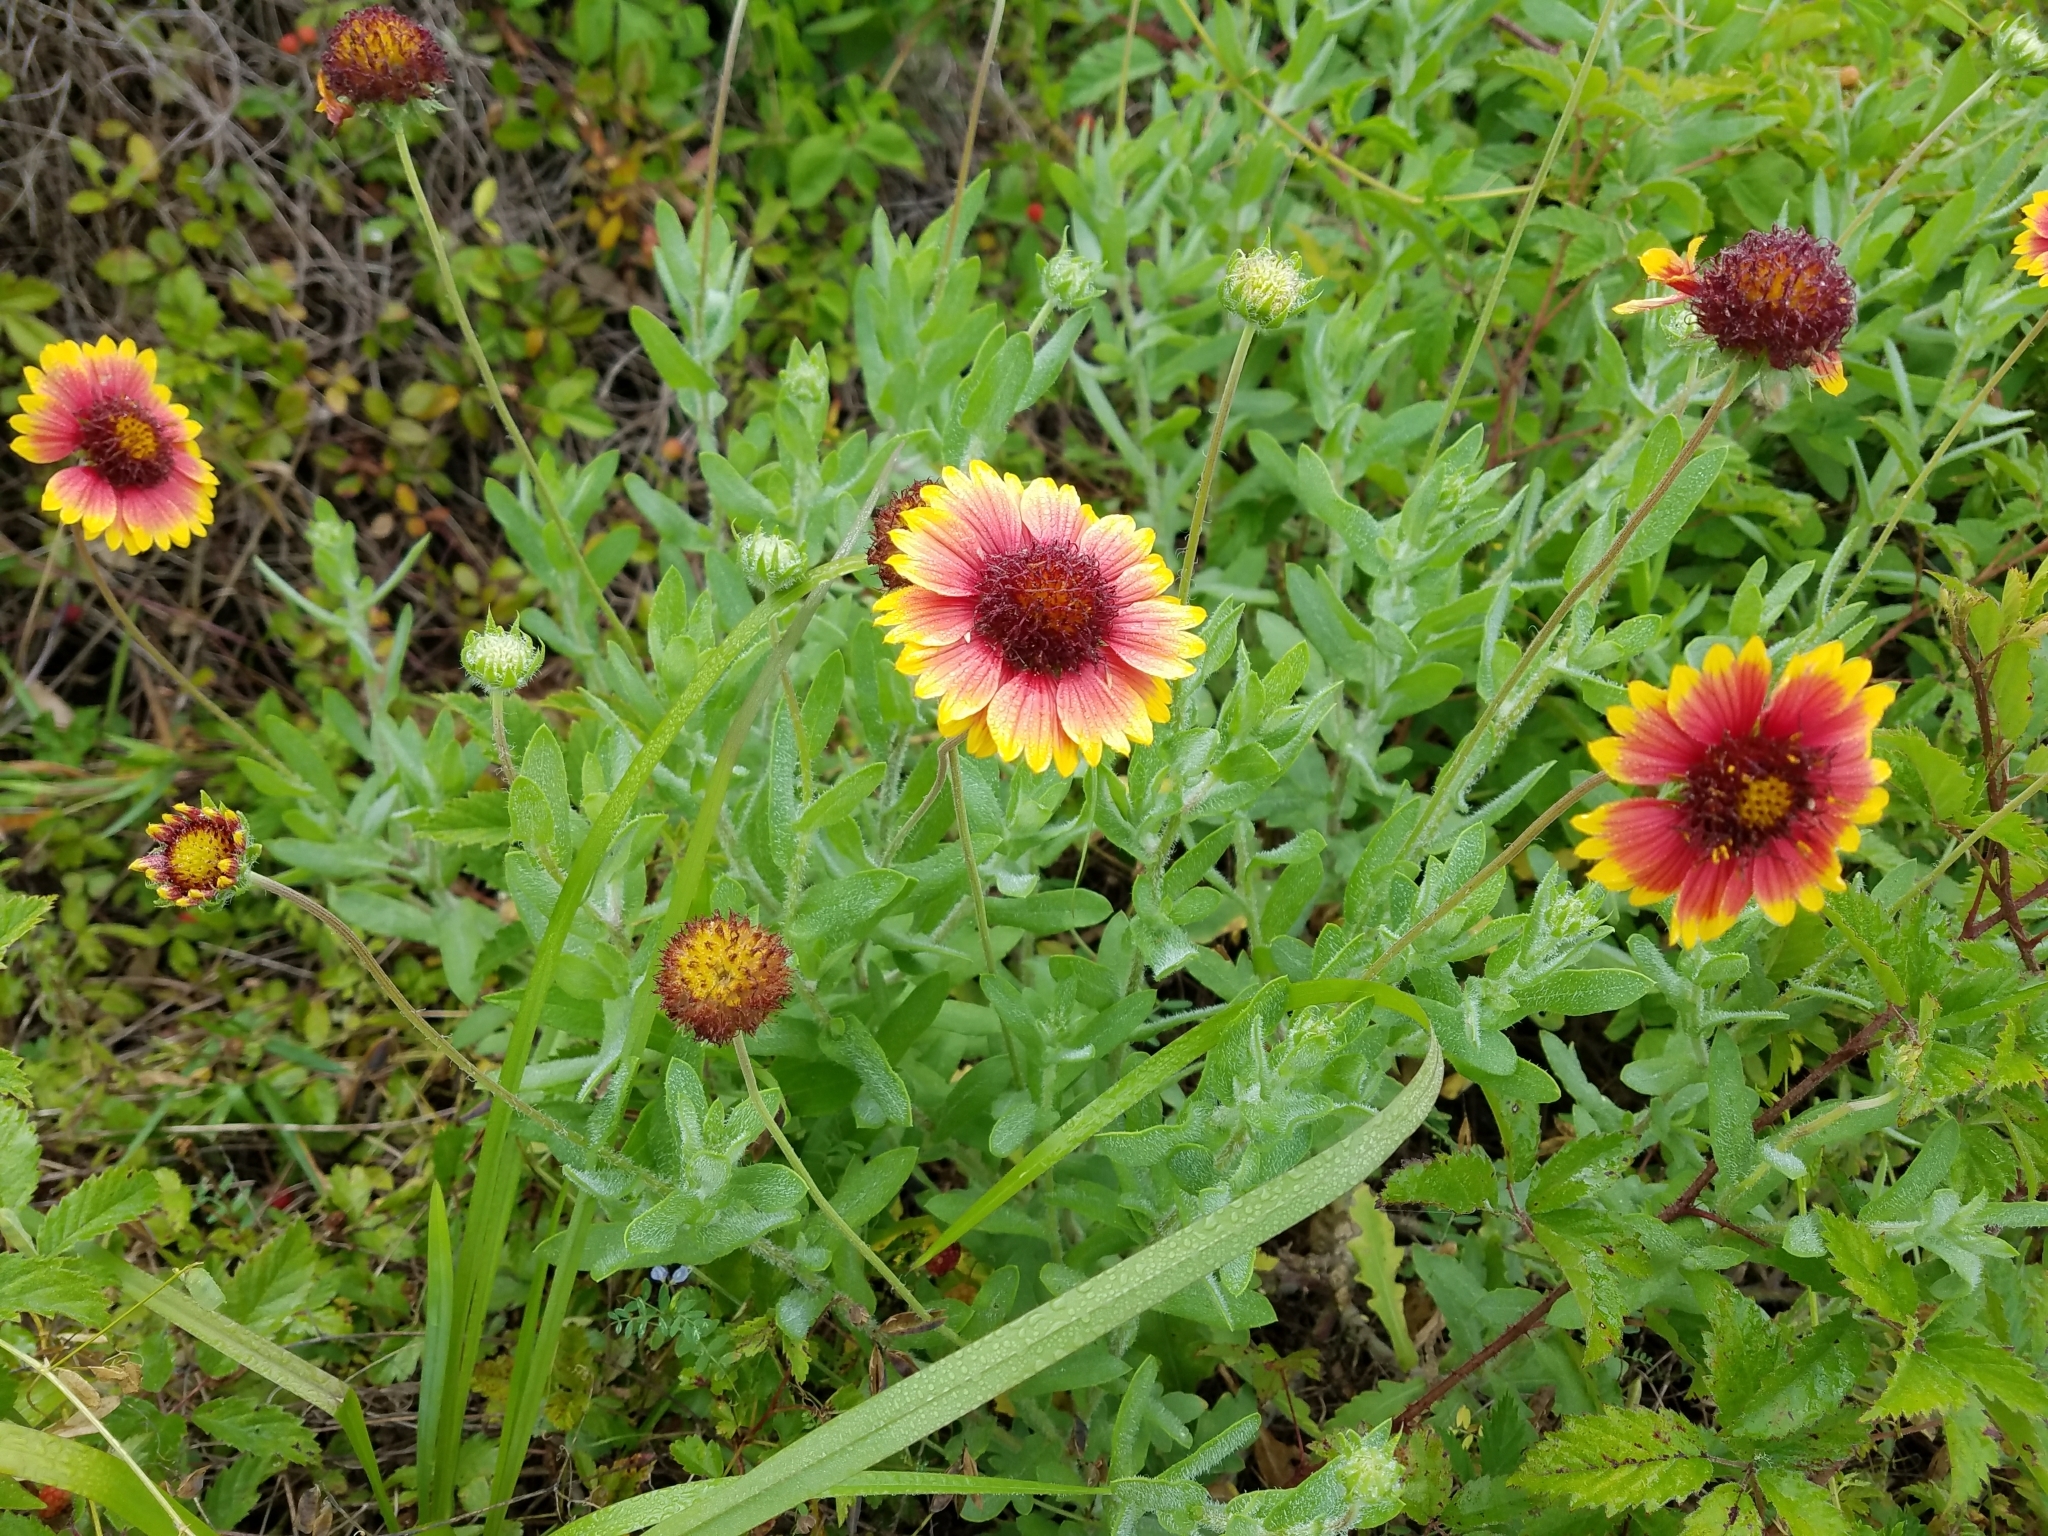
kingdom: Plantae
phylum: Tracheophyta
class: Magnoliopsida
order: Asterales
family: Asteraceae
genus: Gaillardia
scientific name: Gaillardia pulchella
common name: Firewheel
